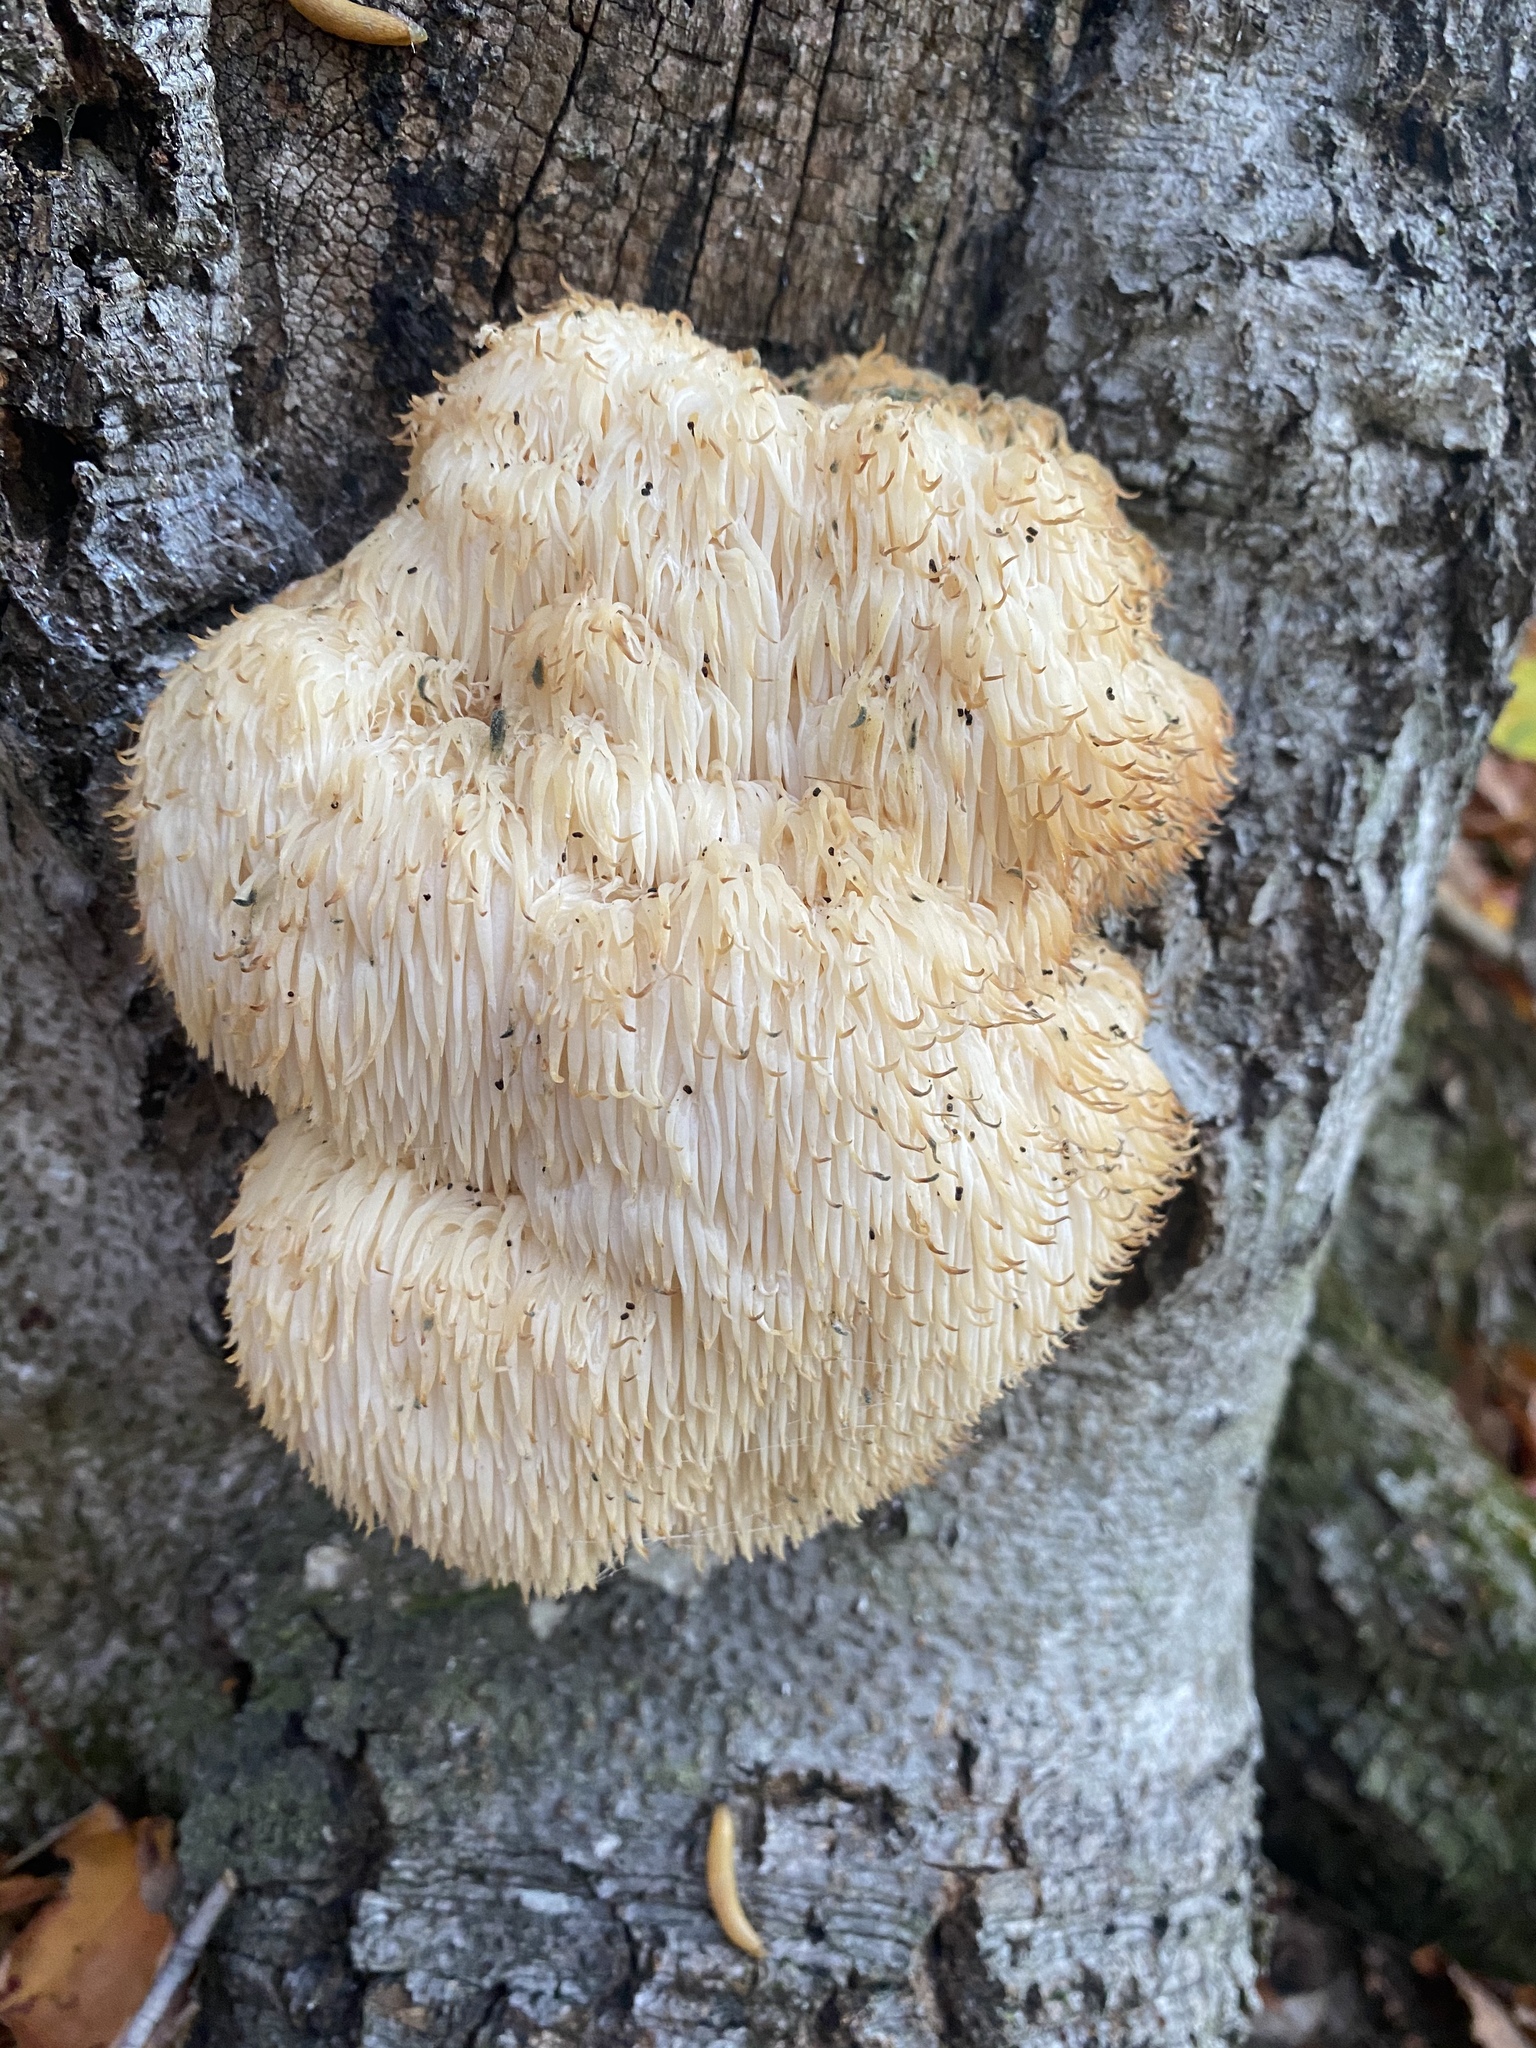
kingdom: Fungi
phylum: Basidiomycota
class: Agaricomycetes
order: Russulales
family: Hericiaceae
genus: Hericium
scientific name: Hericium erinaceus
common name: Bearded tooth
